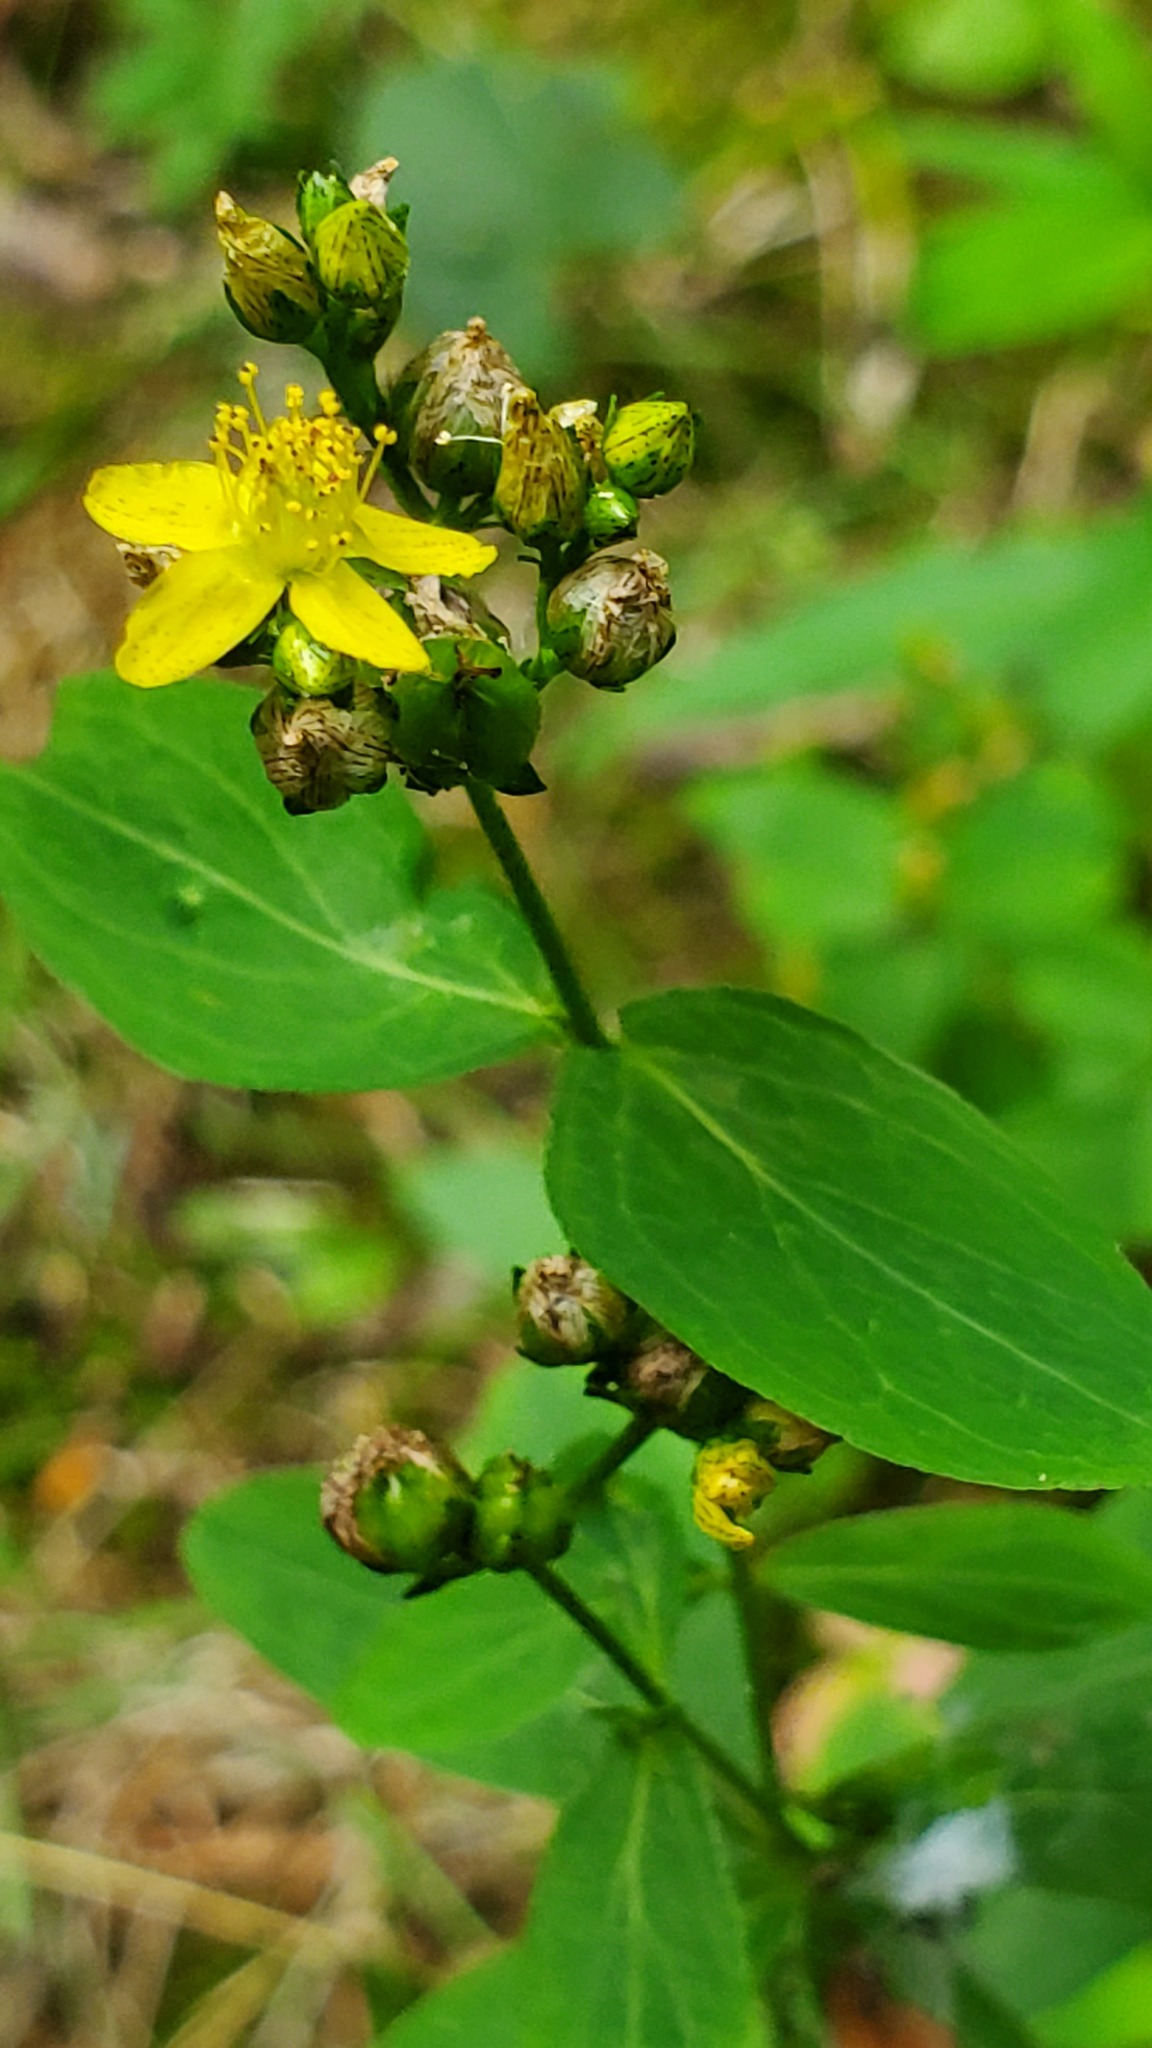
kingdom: Plantae
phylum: Tracheophyta
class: Magnoliopsida
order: Malpighiales
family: Hypericaceae
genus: Hypericum
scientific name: Hypericum punctatum
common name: Spotted st. john's-wort
